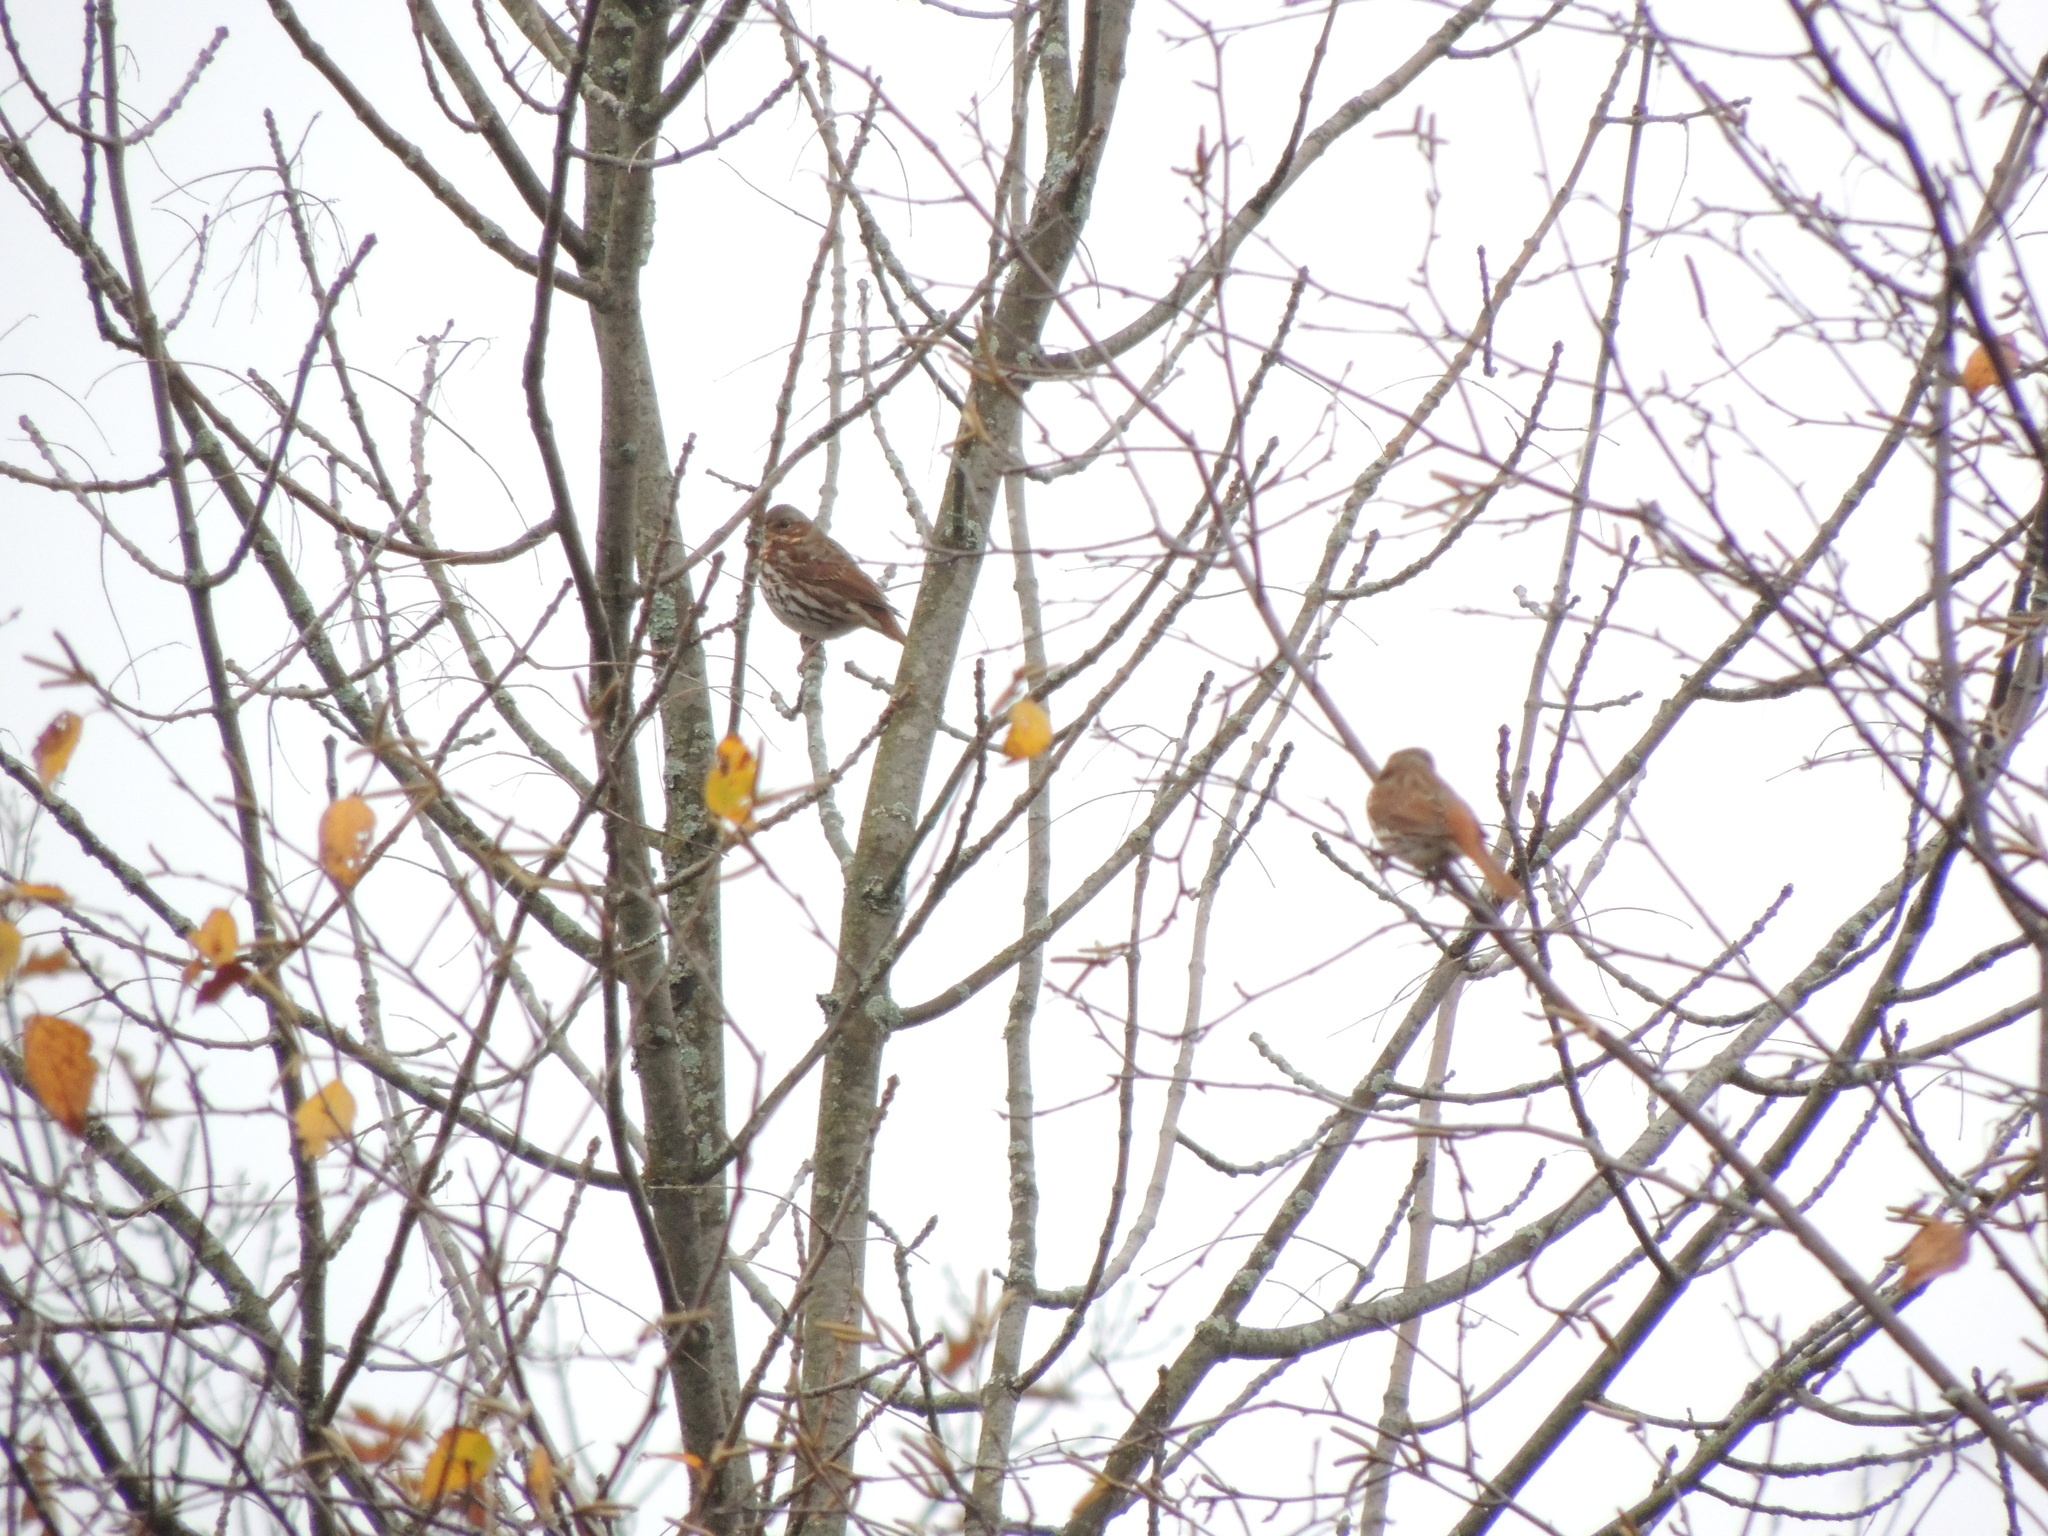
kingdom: Animalia
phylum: Chordata
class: Aves
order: Passeriformes
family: Passerellidae
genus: Passerella
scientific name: Passerella iliaca
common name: Fox sparrow
